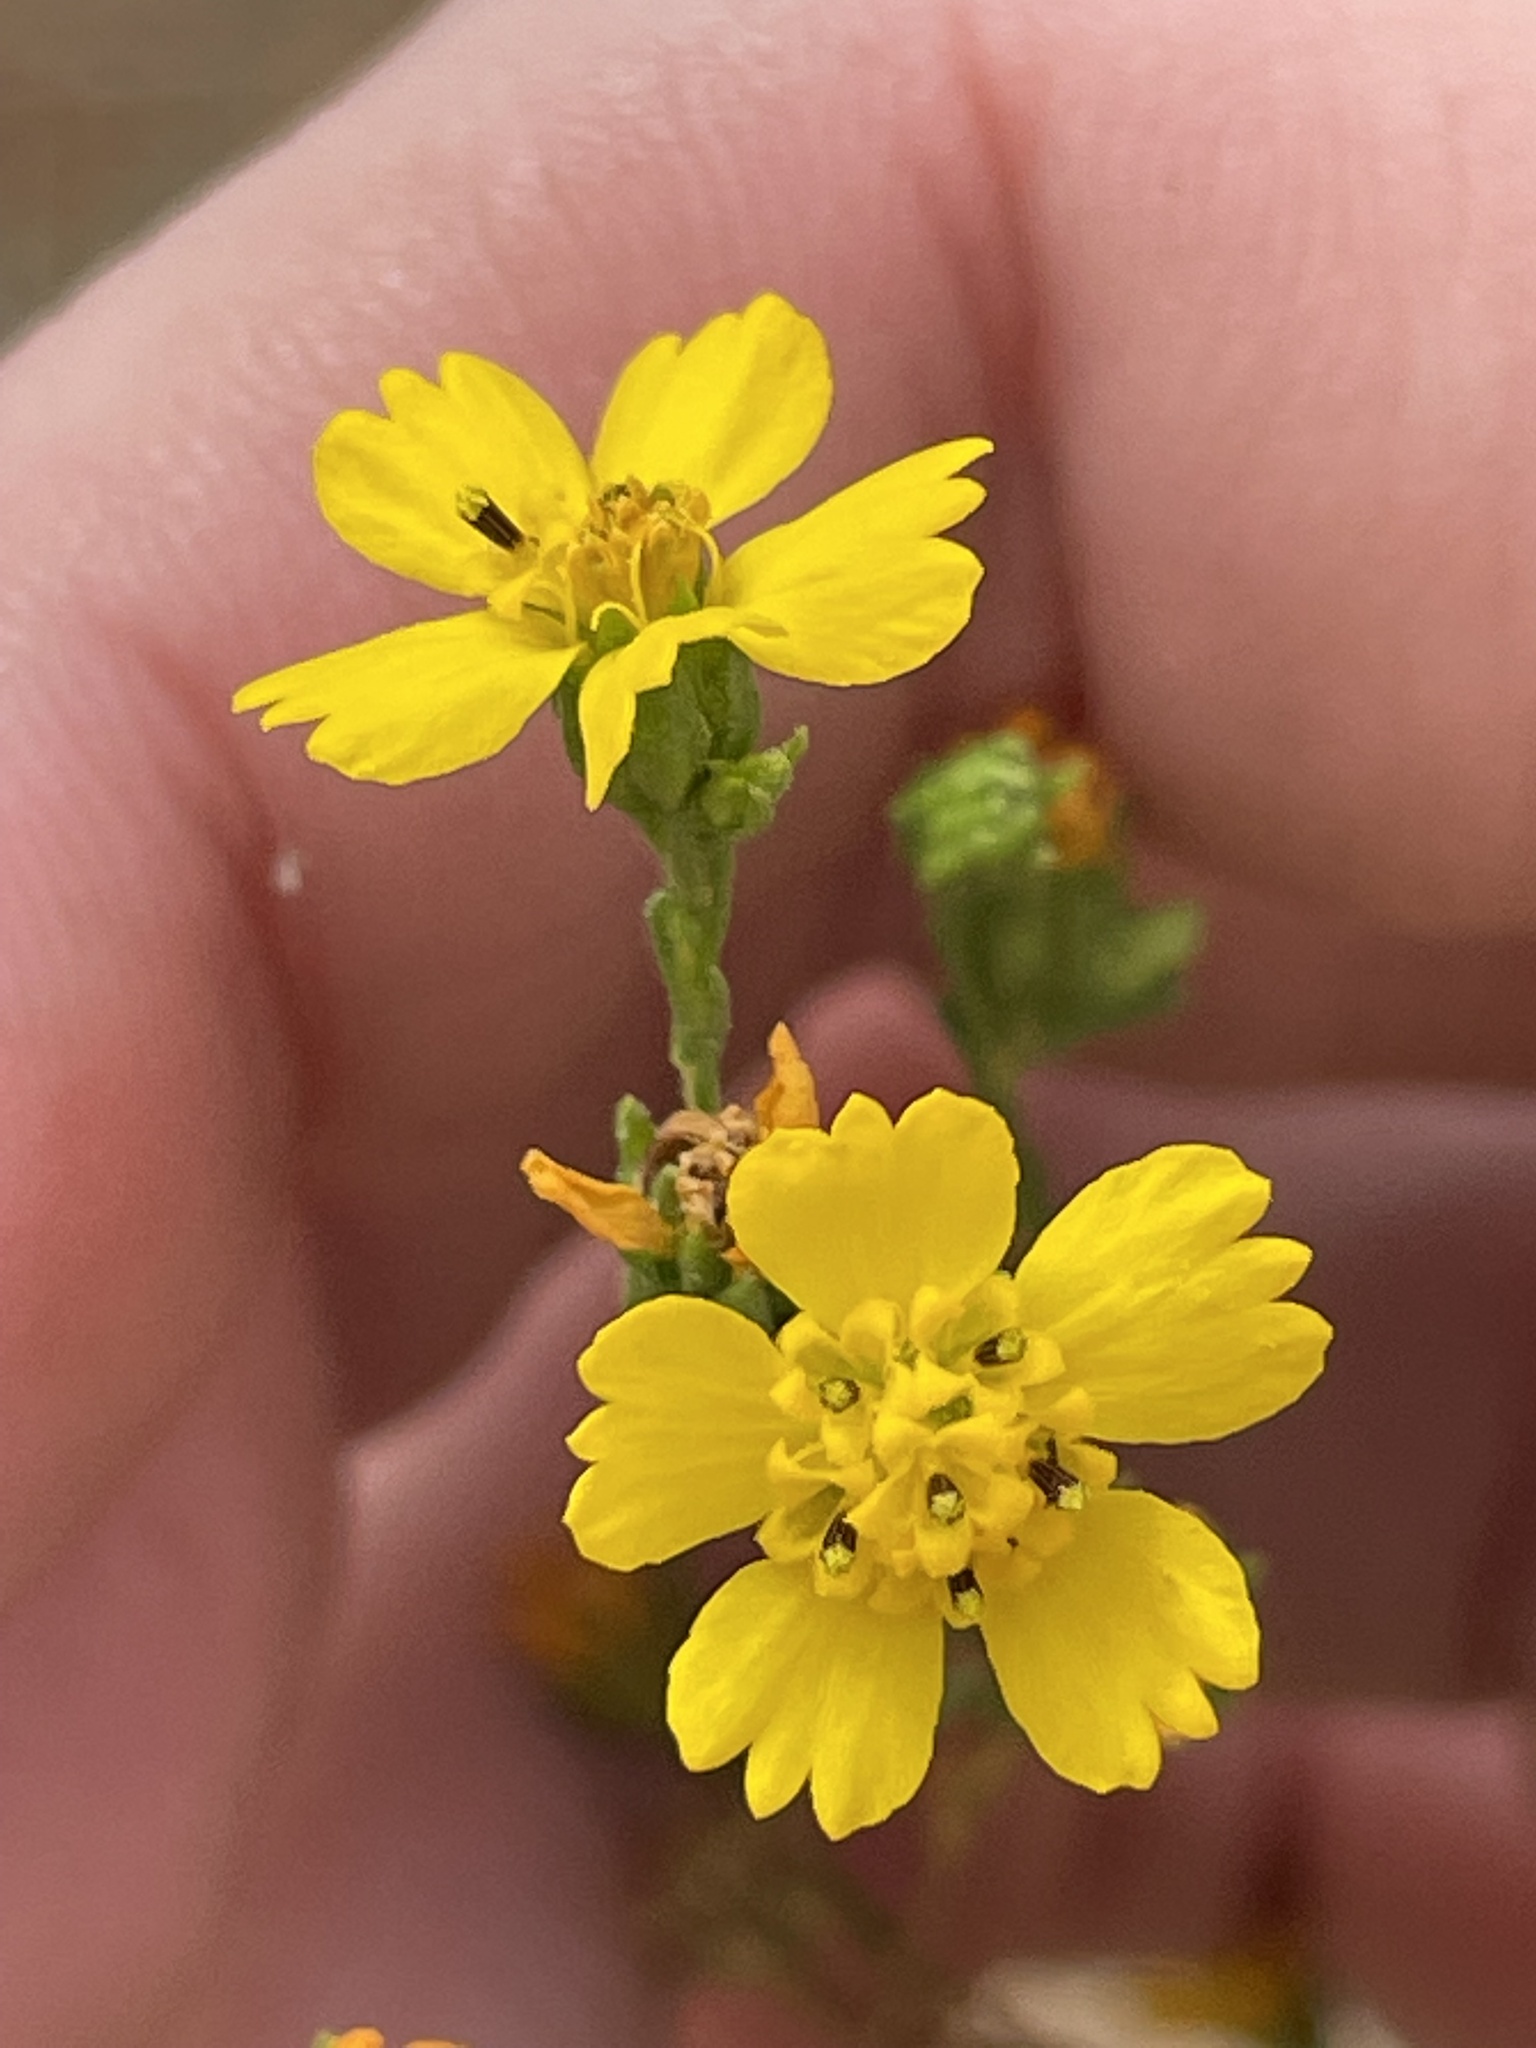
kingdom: Plantae
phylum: Tracheophyta
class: Magnoliopsida
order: Asterales
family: Asteraceae
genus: Deinandra
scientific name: Deinandra fasciculata
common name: Clustered tarweed
